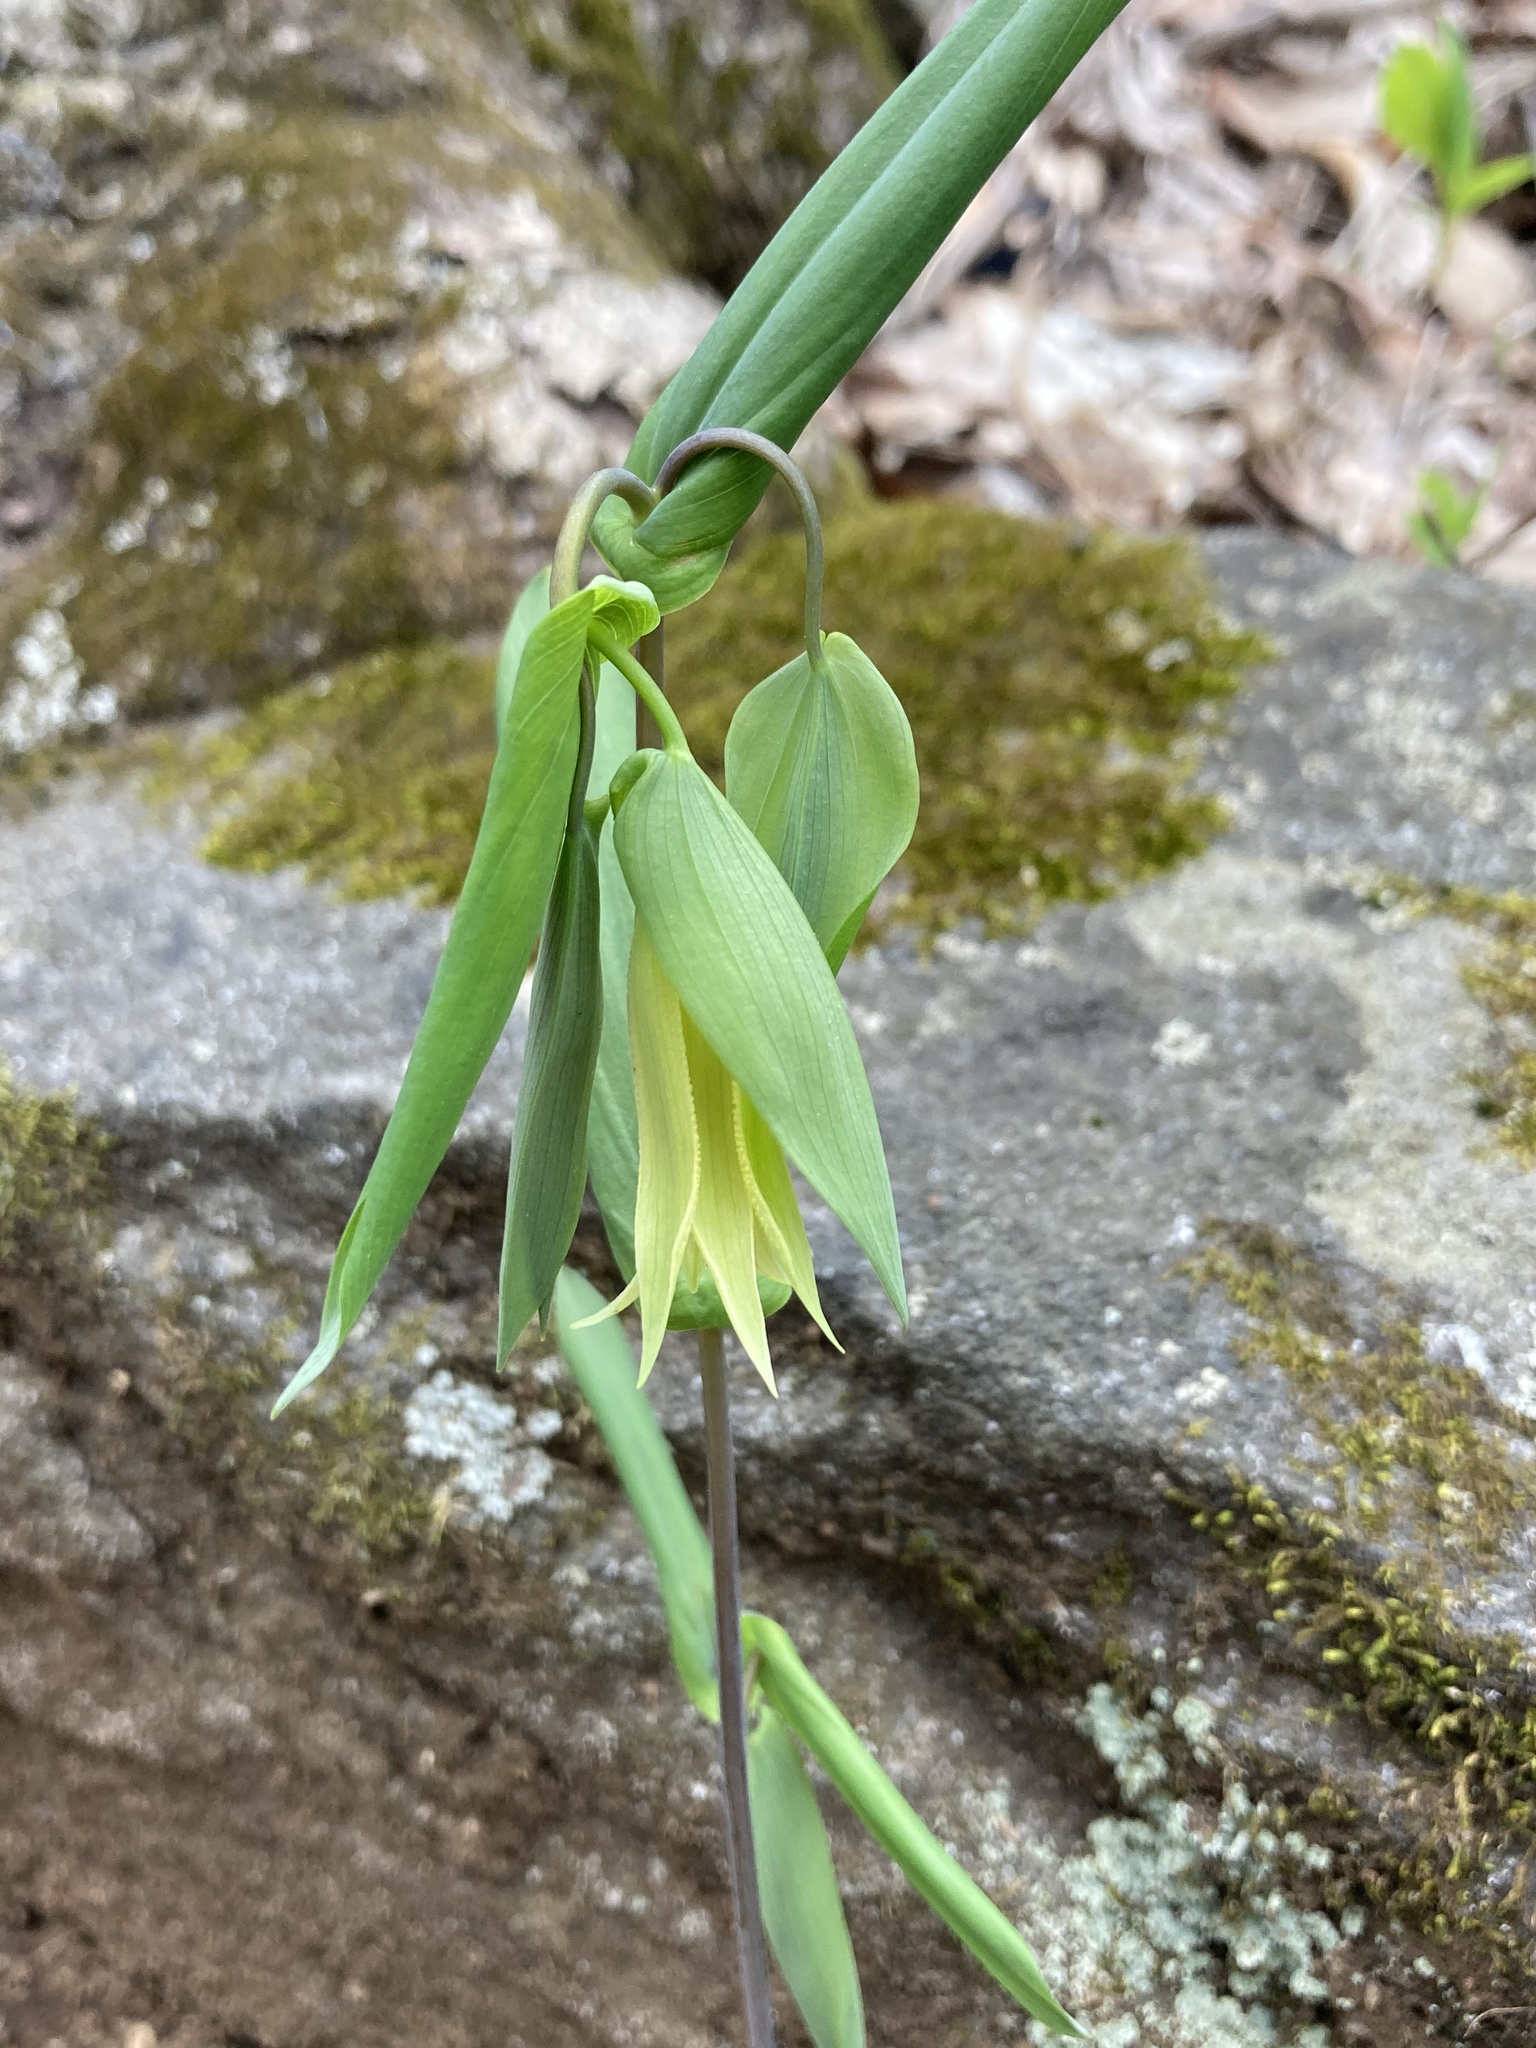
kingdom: Plantae
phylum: Tracheophyta
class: Liliopsida
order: Liliales
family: Colchicaceae
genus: Uvularia
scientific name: Uvularia perfoliata
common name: Perfoliate bellwort
